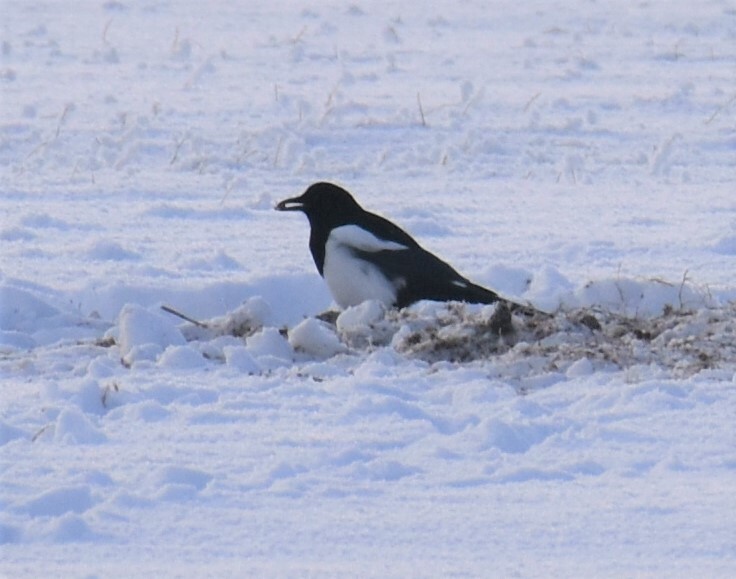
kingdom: Animalia
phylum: Chordata
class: Aves
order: Passeriformes
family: Corvidae
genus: Pica
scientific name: Pica hudsonia
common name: Black-billed magpie
